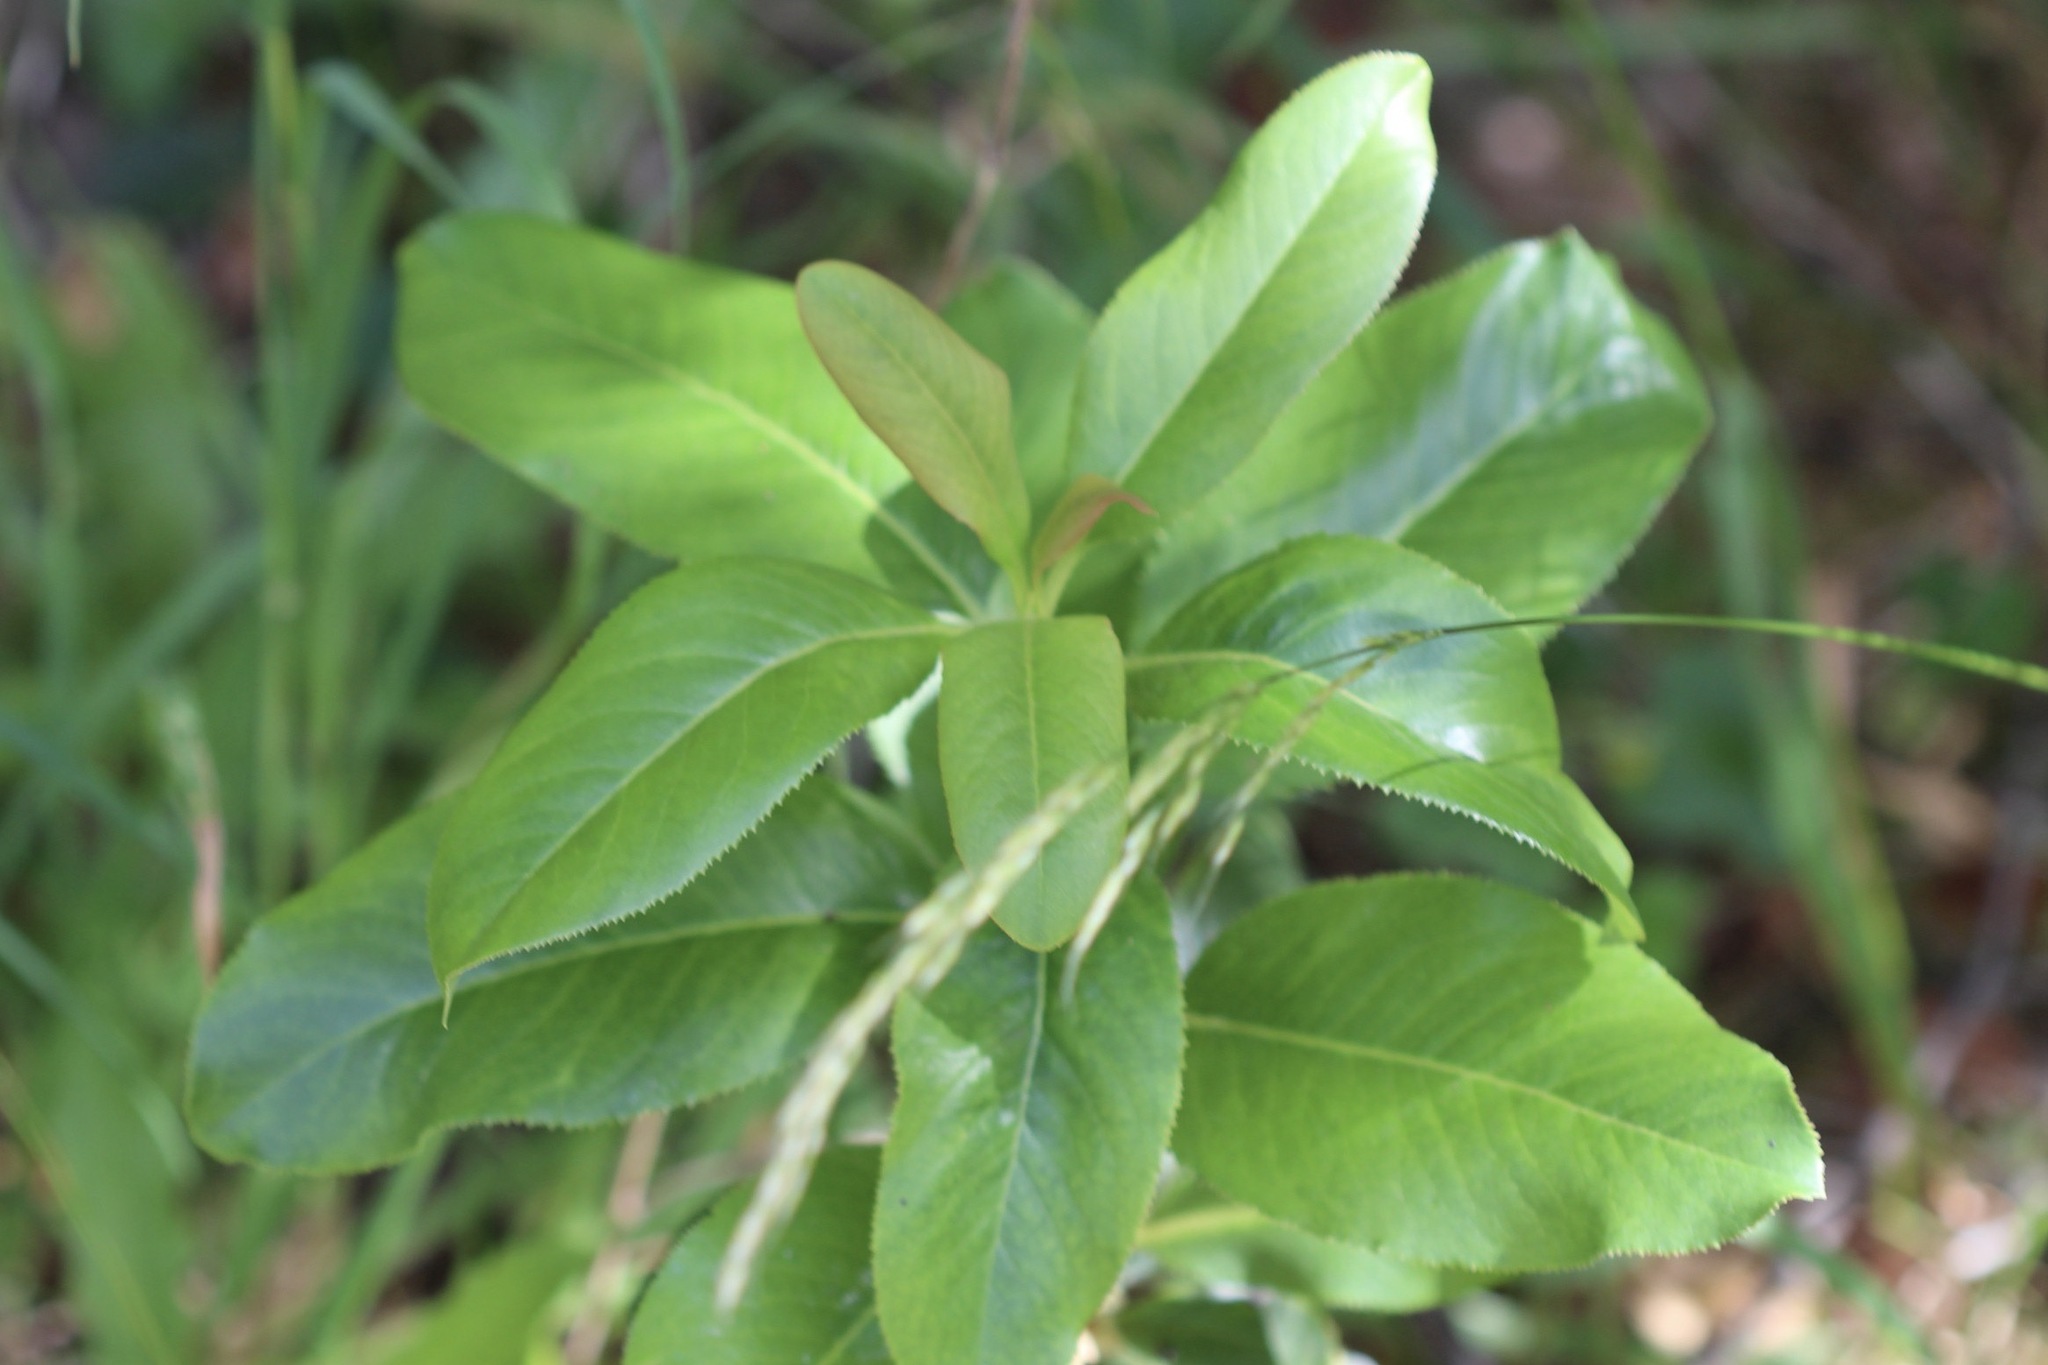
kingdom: Plantae
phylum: Tracheophyta
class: Magnoliopsida
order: Ericales
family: Ericaceae
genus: Arbutus
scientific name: Arbutus menziesii
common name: Pacific madrone
